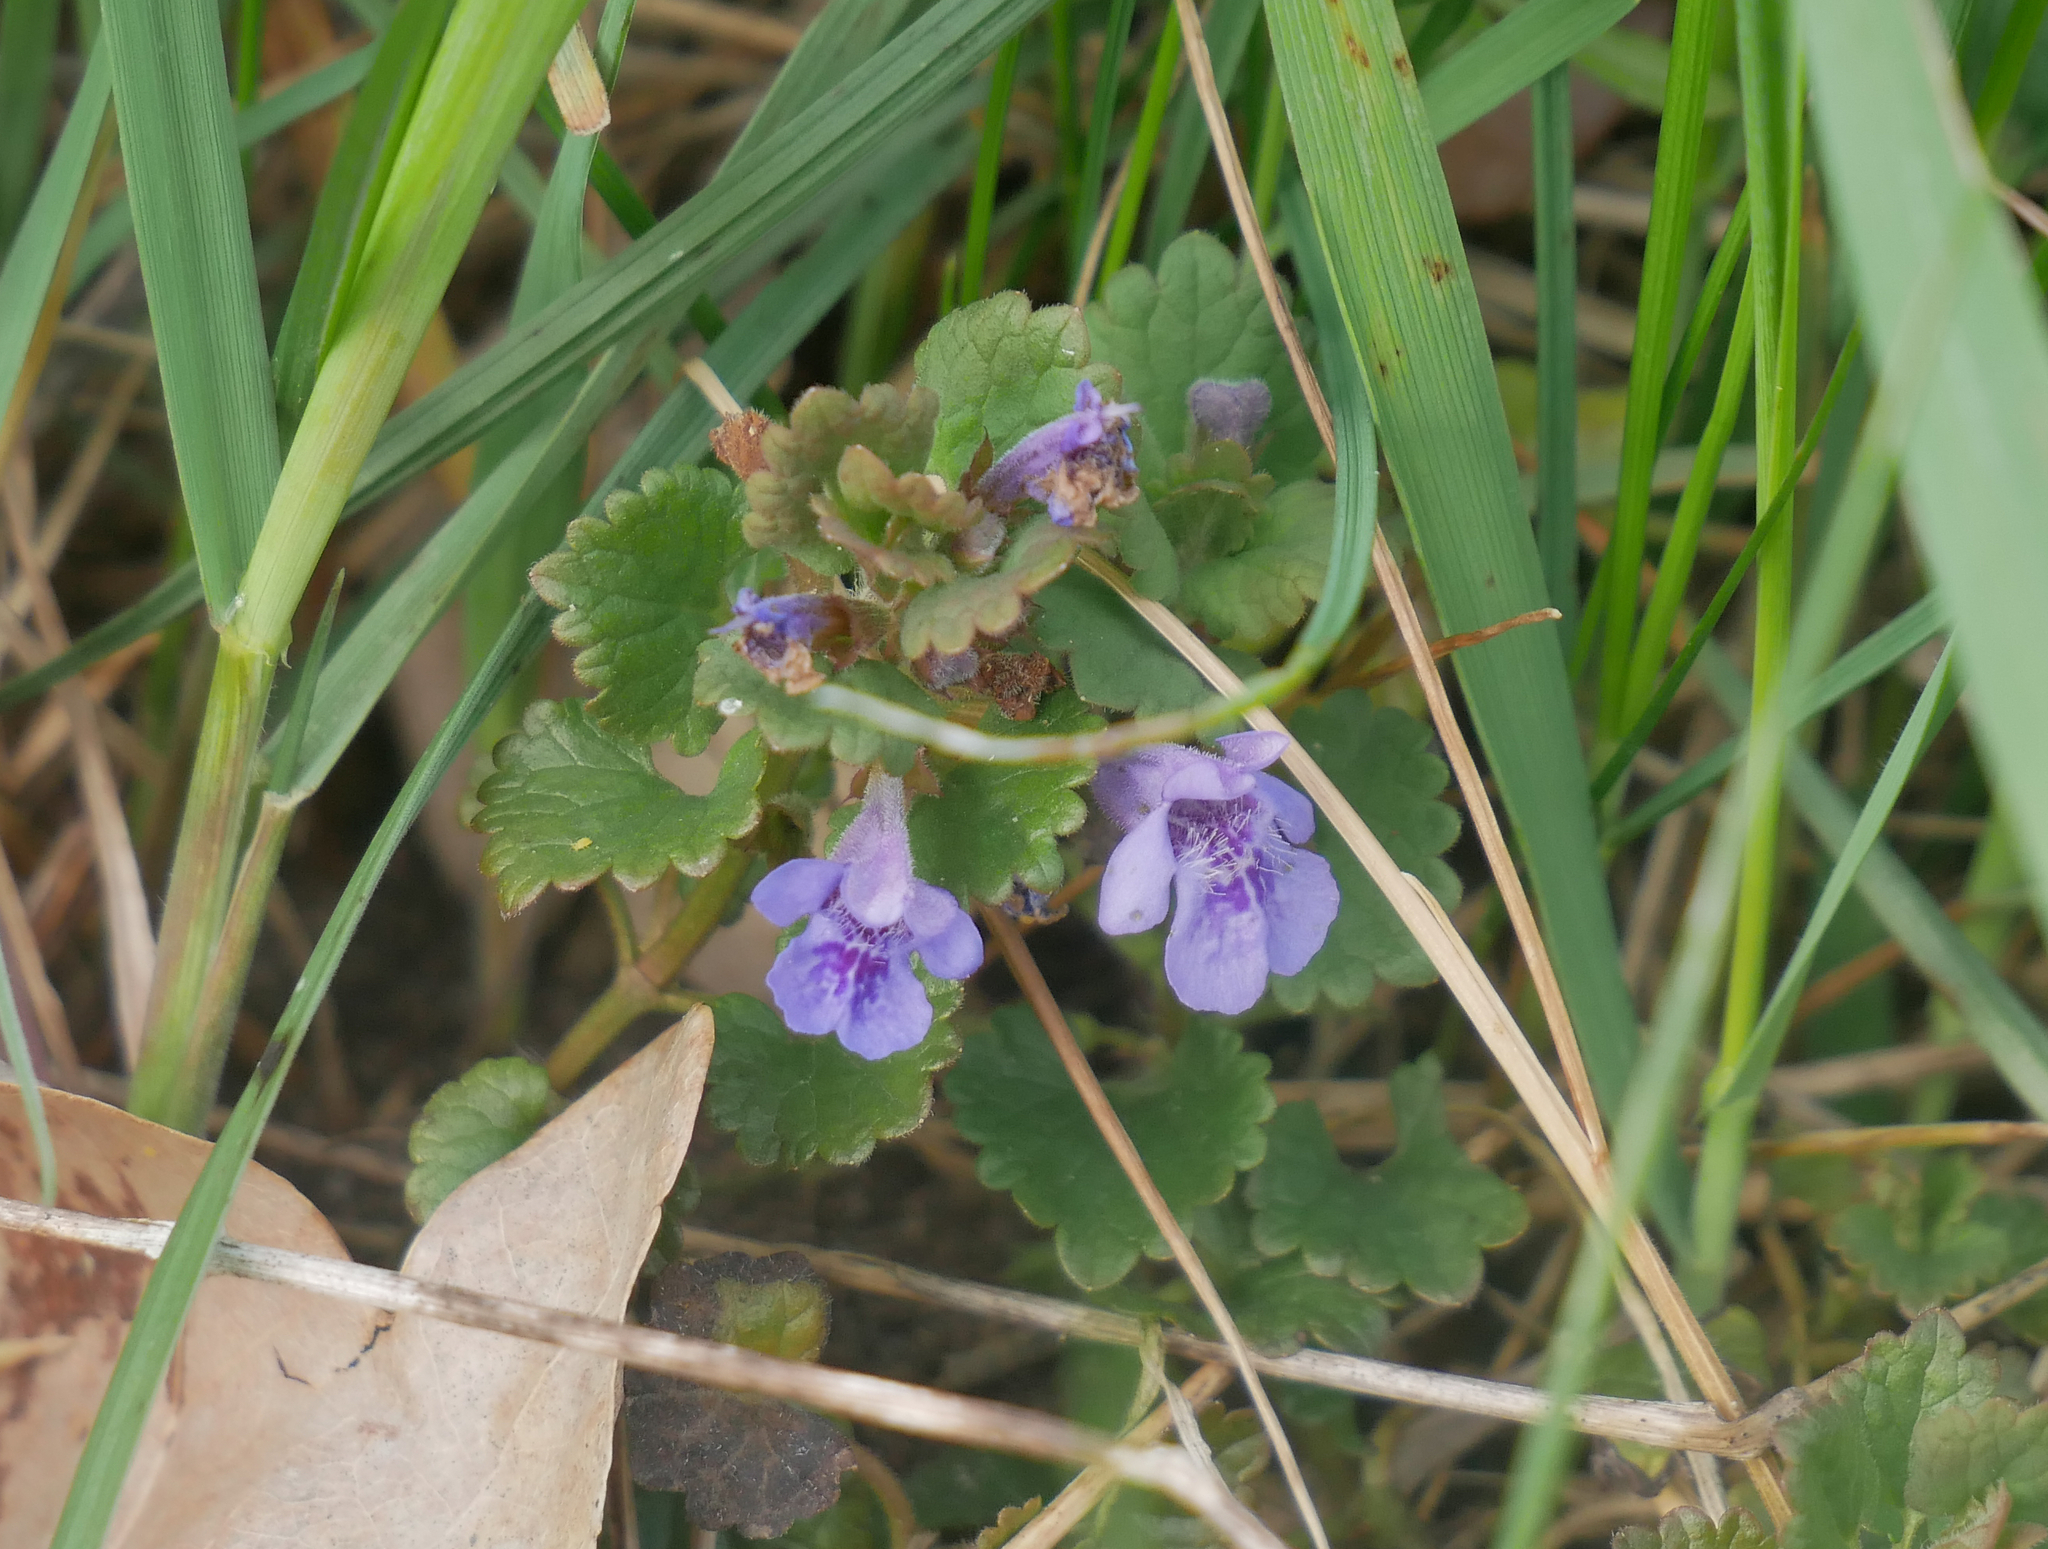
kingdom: Plantae
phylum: Tracheophyta
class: Magnoliopsida
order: Lamiales
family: Lamiaceae
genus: Glechoma
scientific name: Glechoma hederacea
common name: Ground ivy
